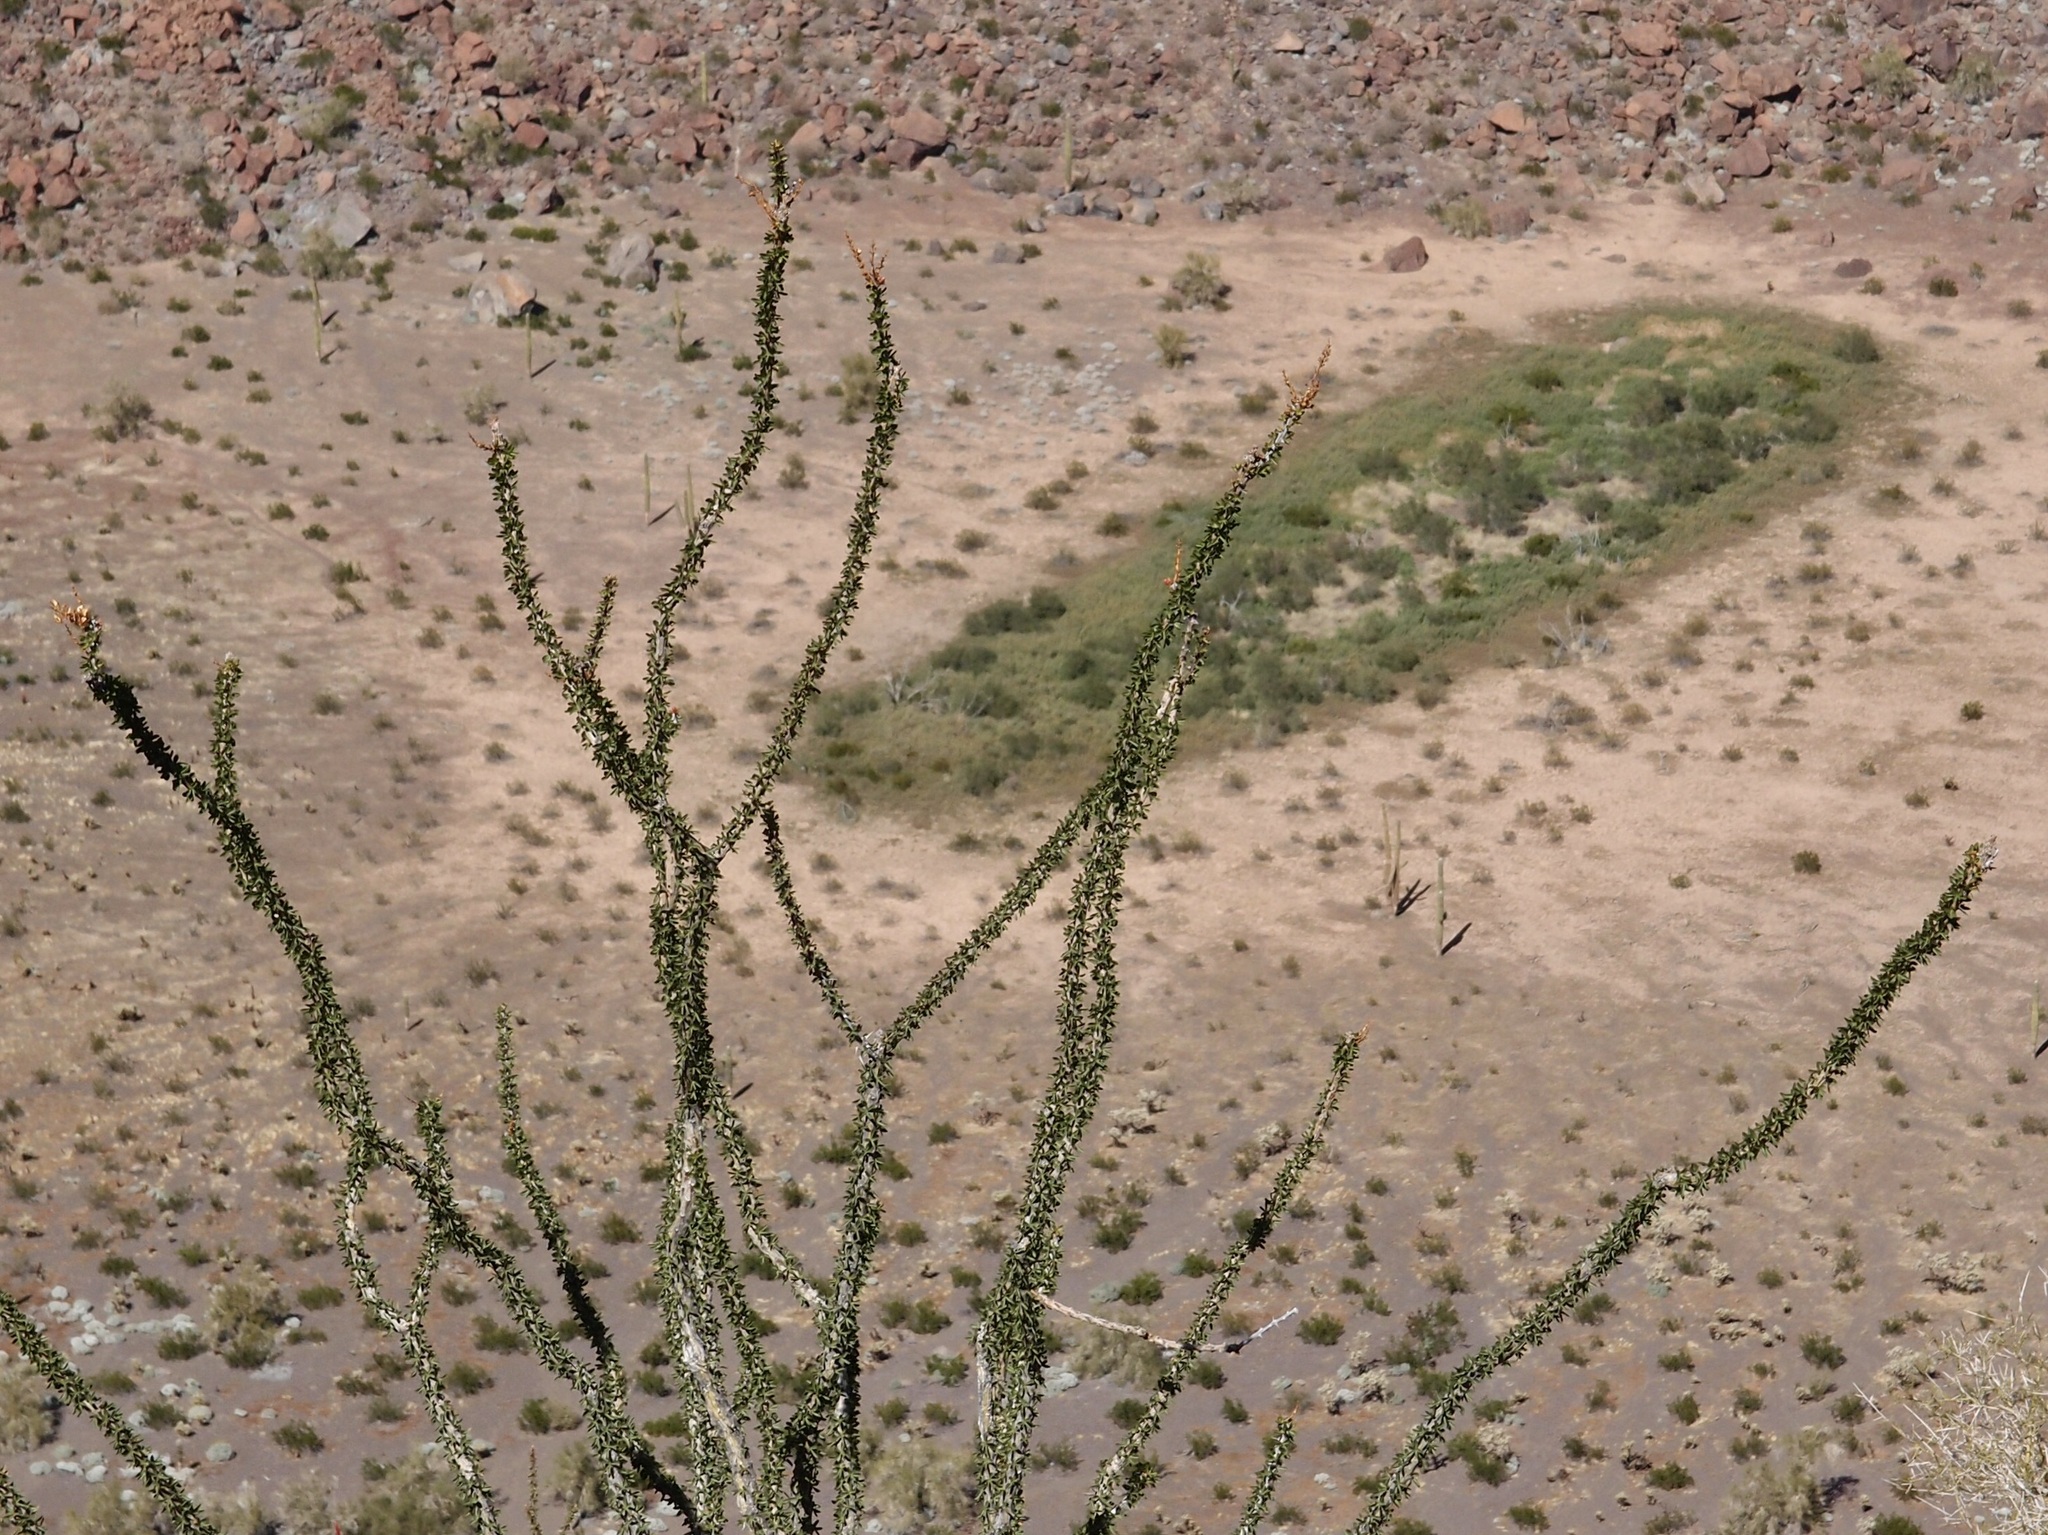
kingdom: Plantae
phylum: Tracheophyta
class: Magnoliopsida
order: Ericales
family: Fouquieriaceae
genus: Fouquieria
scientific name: Fouquieria splendens
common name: Vine-cactus
